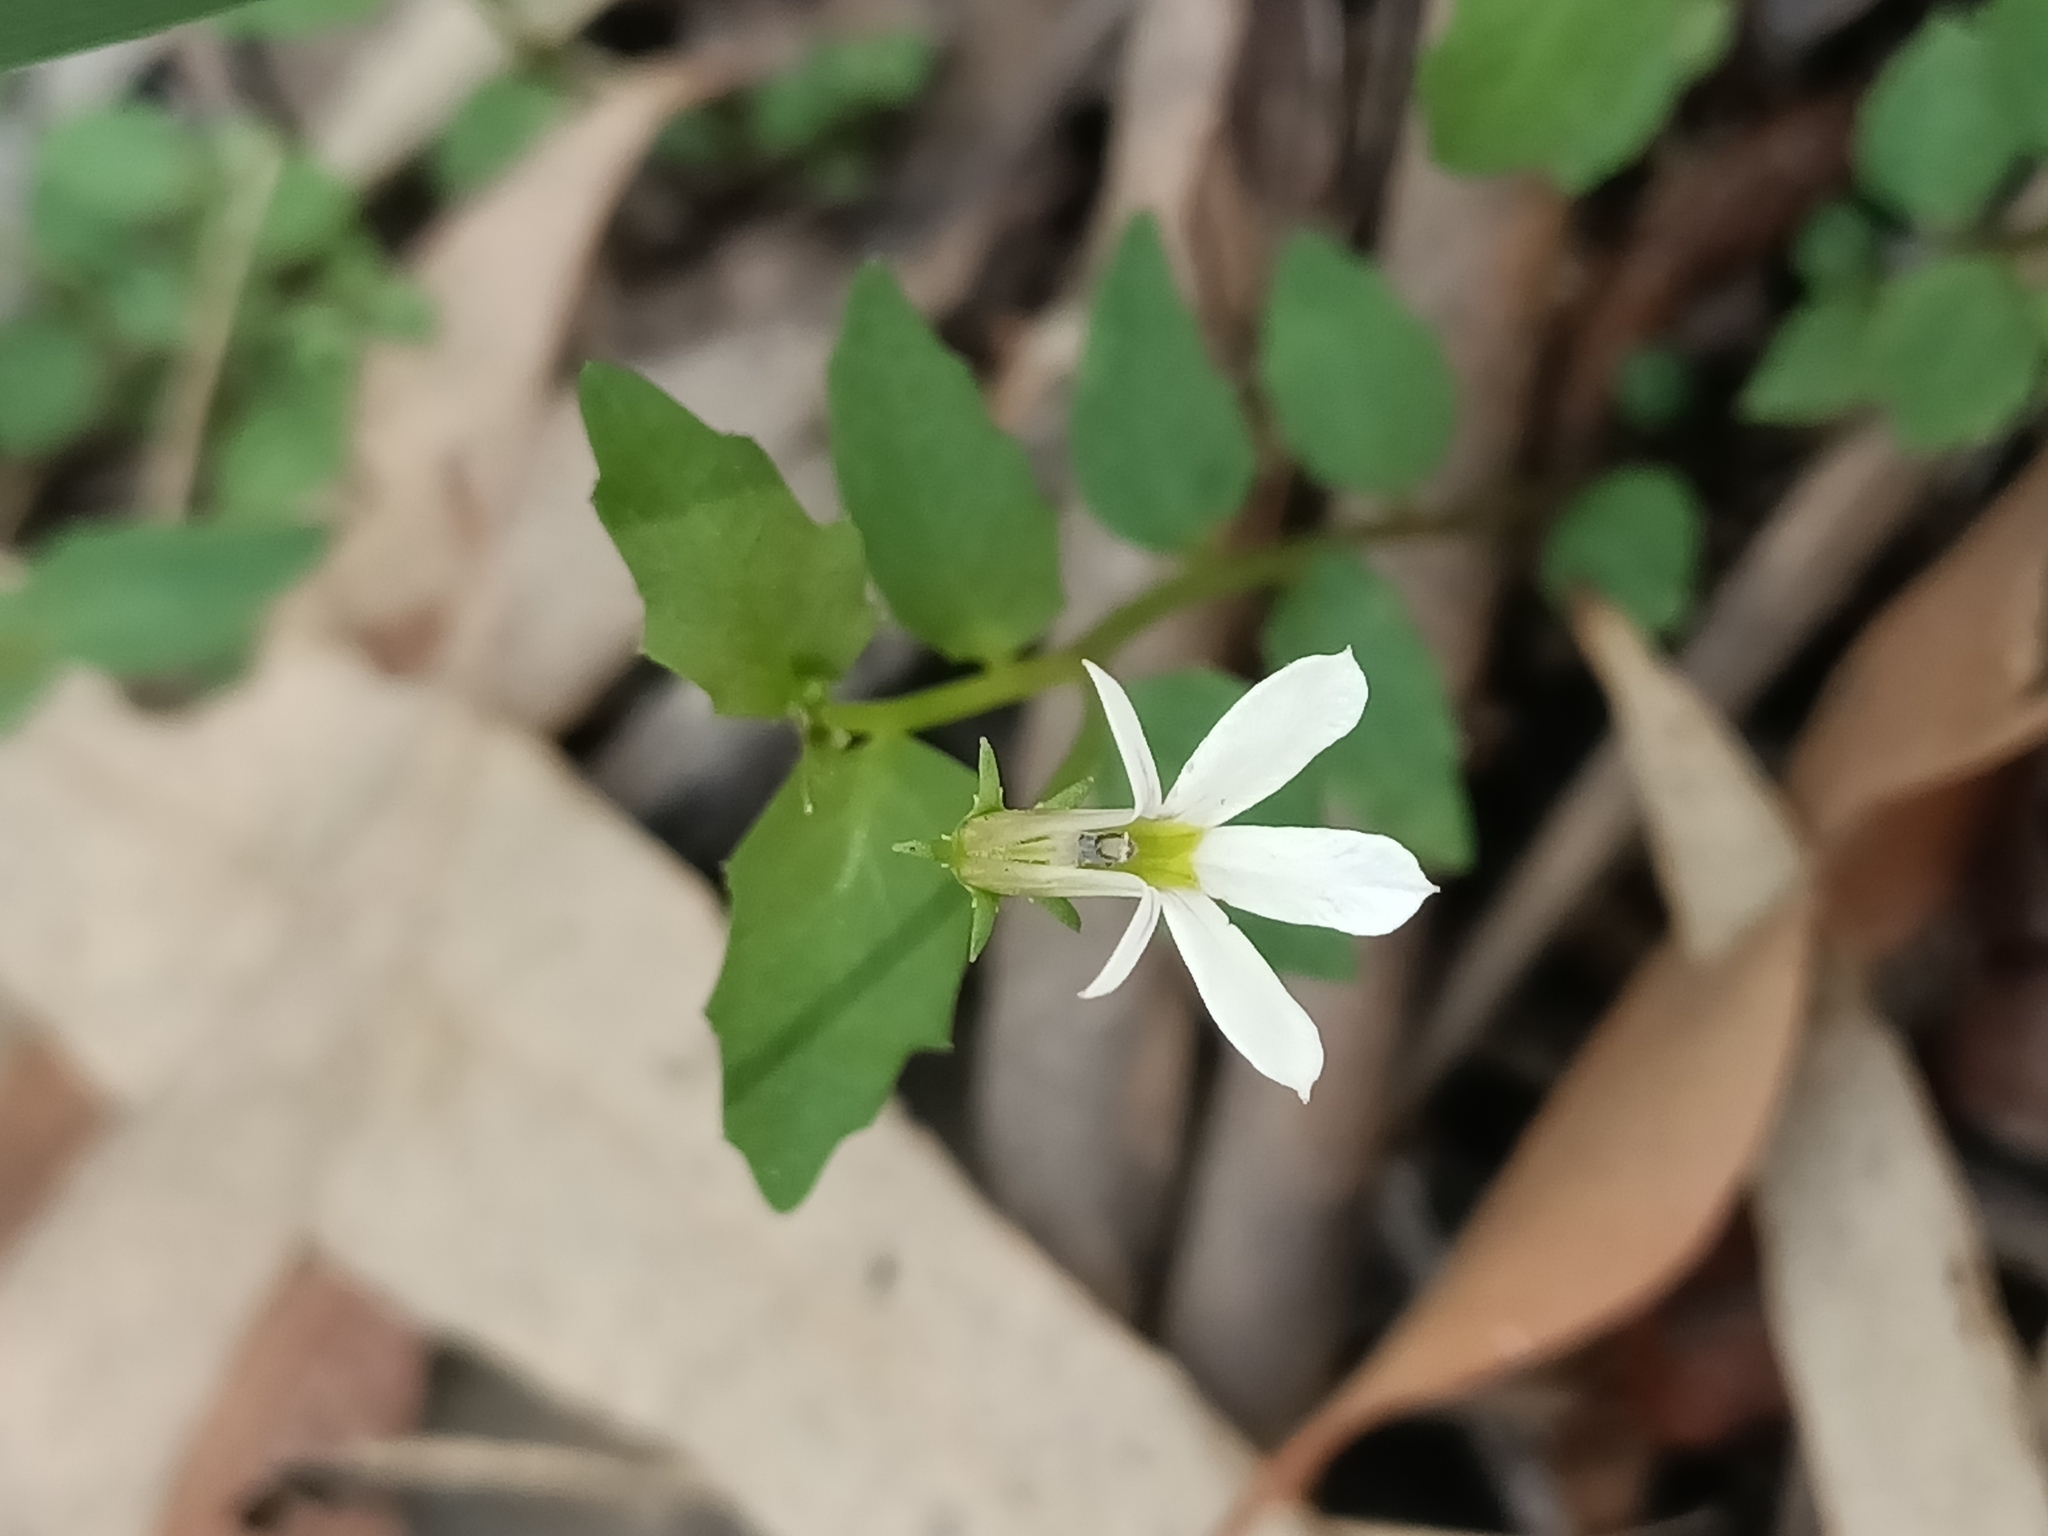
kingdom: Plantae
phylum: Tracheophyta
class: Magnoliopsida
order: Asterales
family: Campanulaceae
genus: Lobelia
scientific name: Lobelia purpurascens
